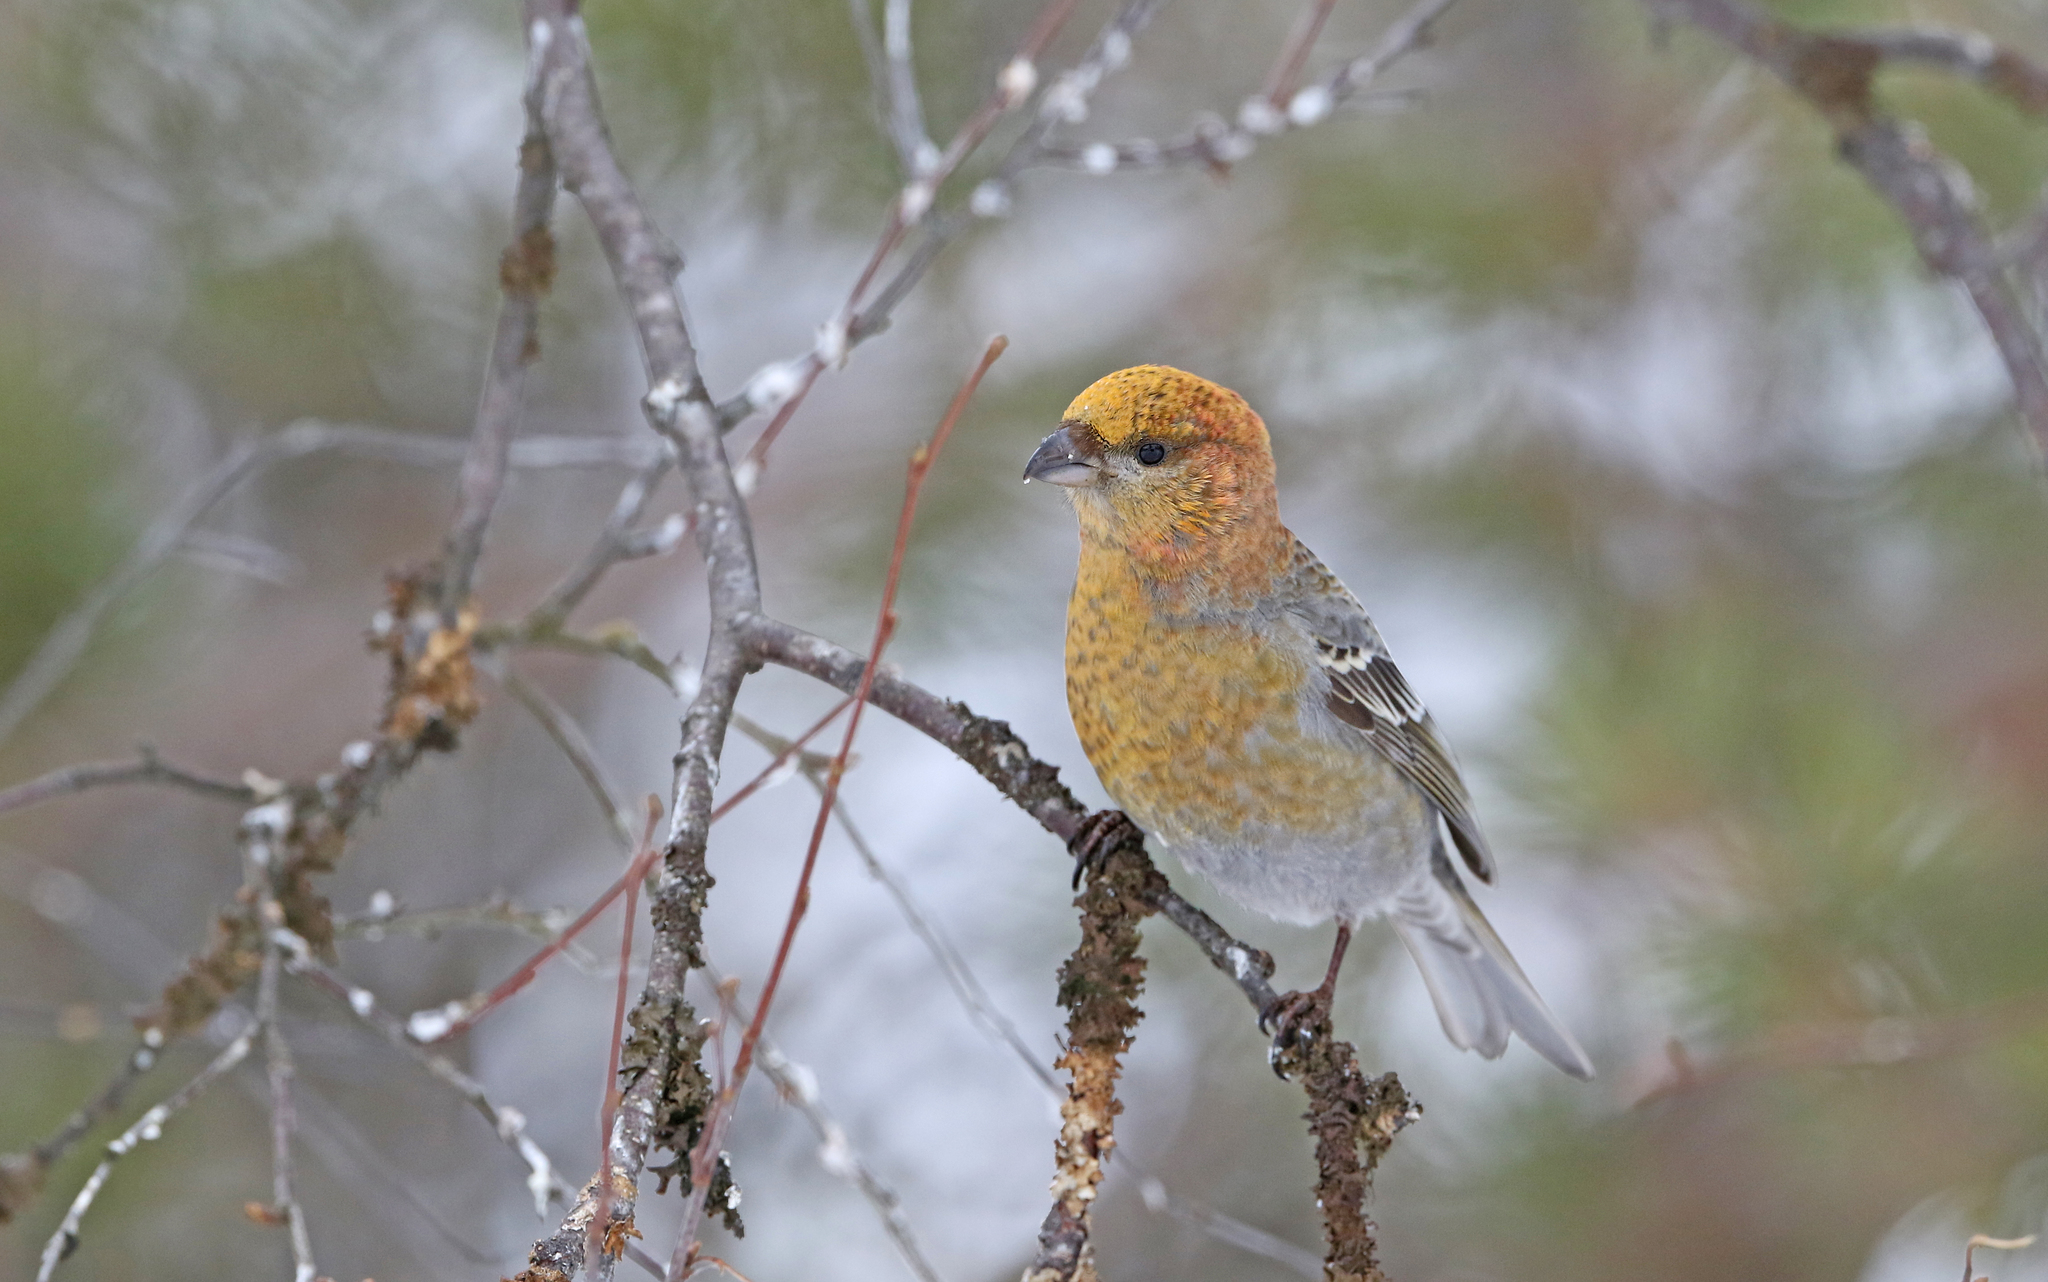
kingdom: Animalia
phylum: Chordata
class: Aves
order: Passeriformes
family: Fringillidae
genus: Pinicola
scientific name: Pinicola enucleator
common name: Pine grosbeak
